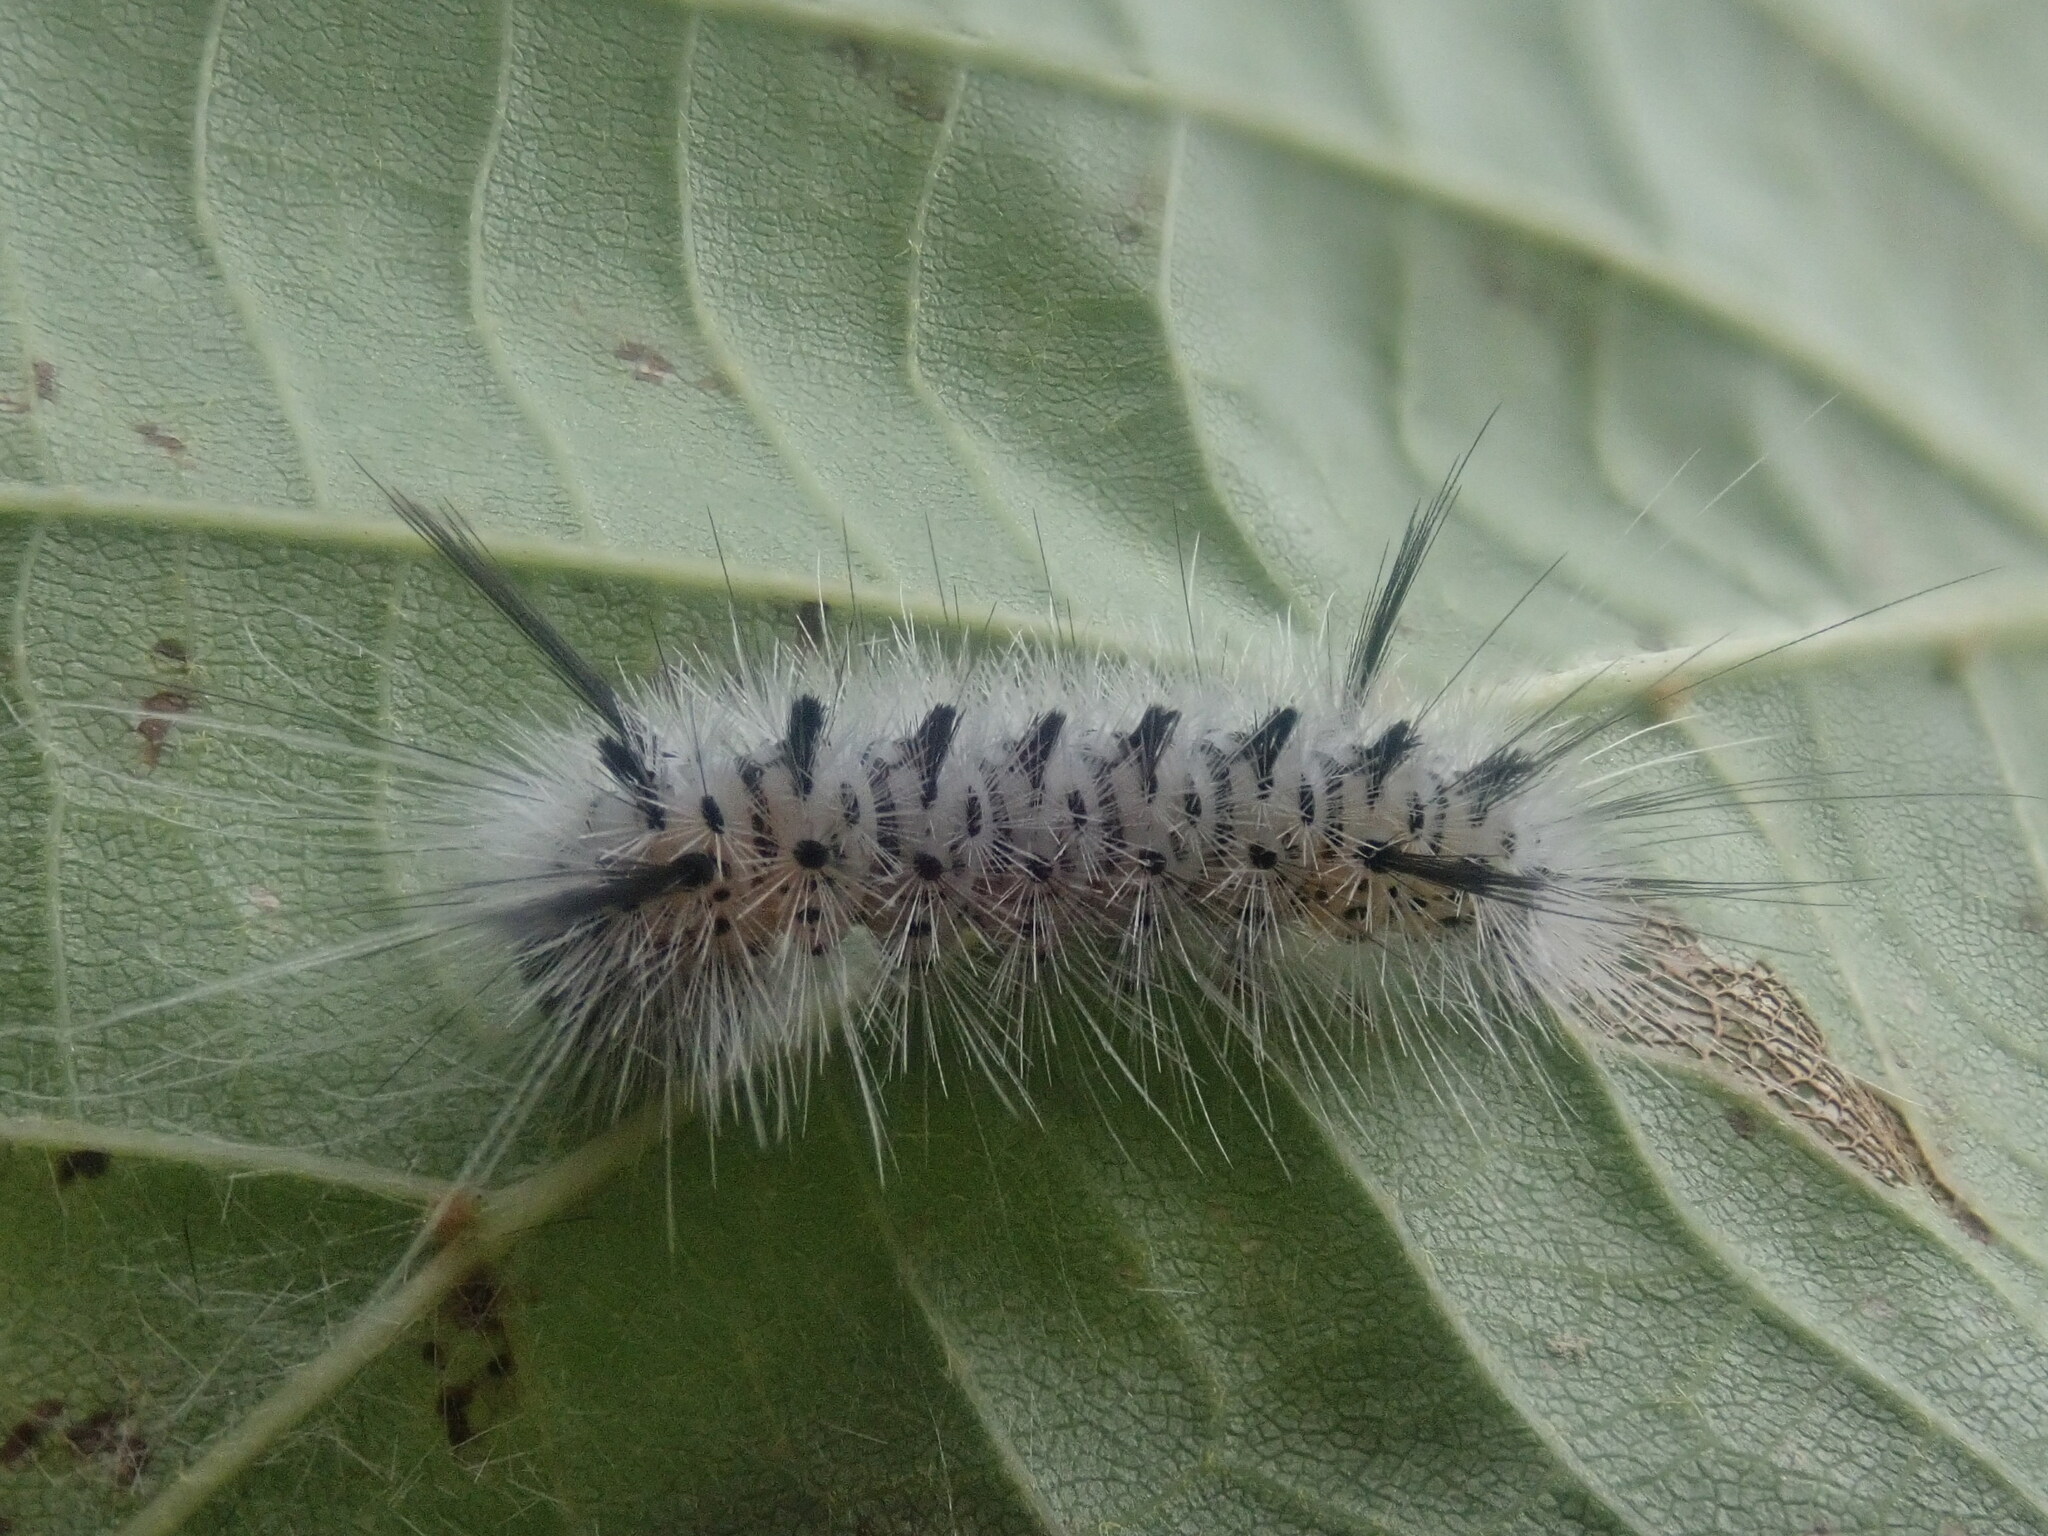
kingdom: Animalia
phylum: Arthropoda
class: Insecta
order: Lepidoptera
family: Erebidae
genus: Lophocampa
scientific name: Lophocampa caryae
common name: Hickory tussock moth
